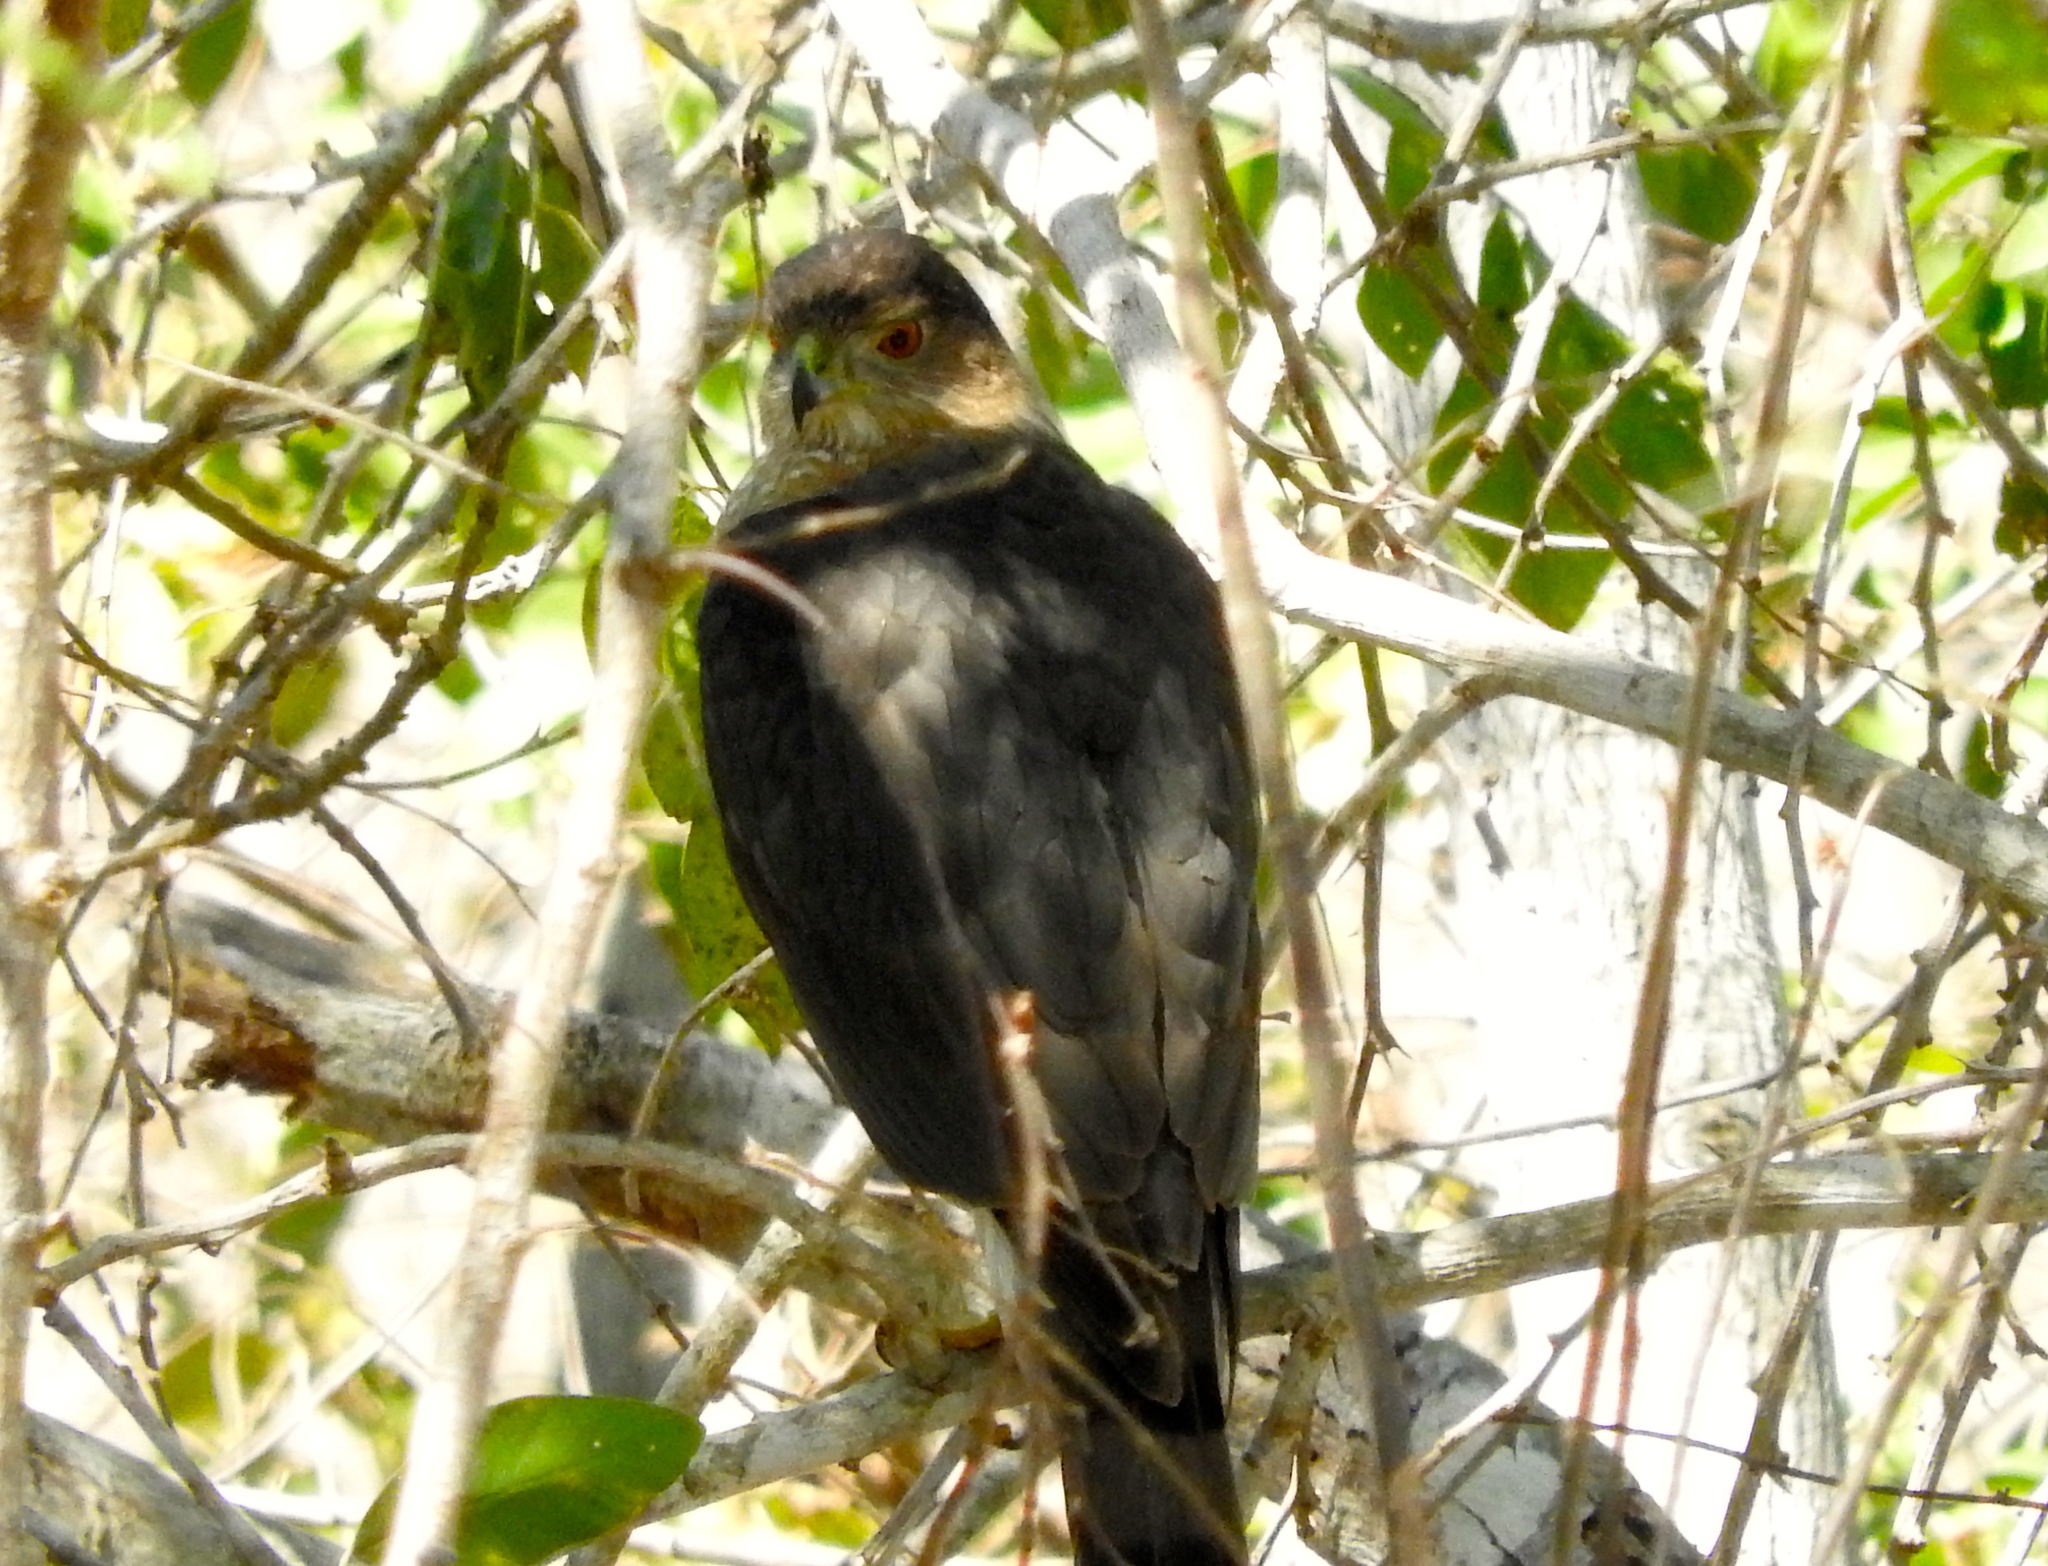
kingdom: Animalia
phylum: Chordata
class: Aves
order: Accipitriformes
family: Accipitridae
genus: Accipiter
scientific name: Accipiter cooperii
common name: Cooper's hawk
